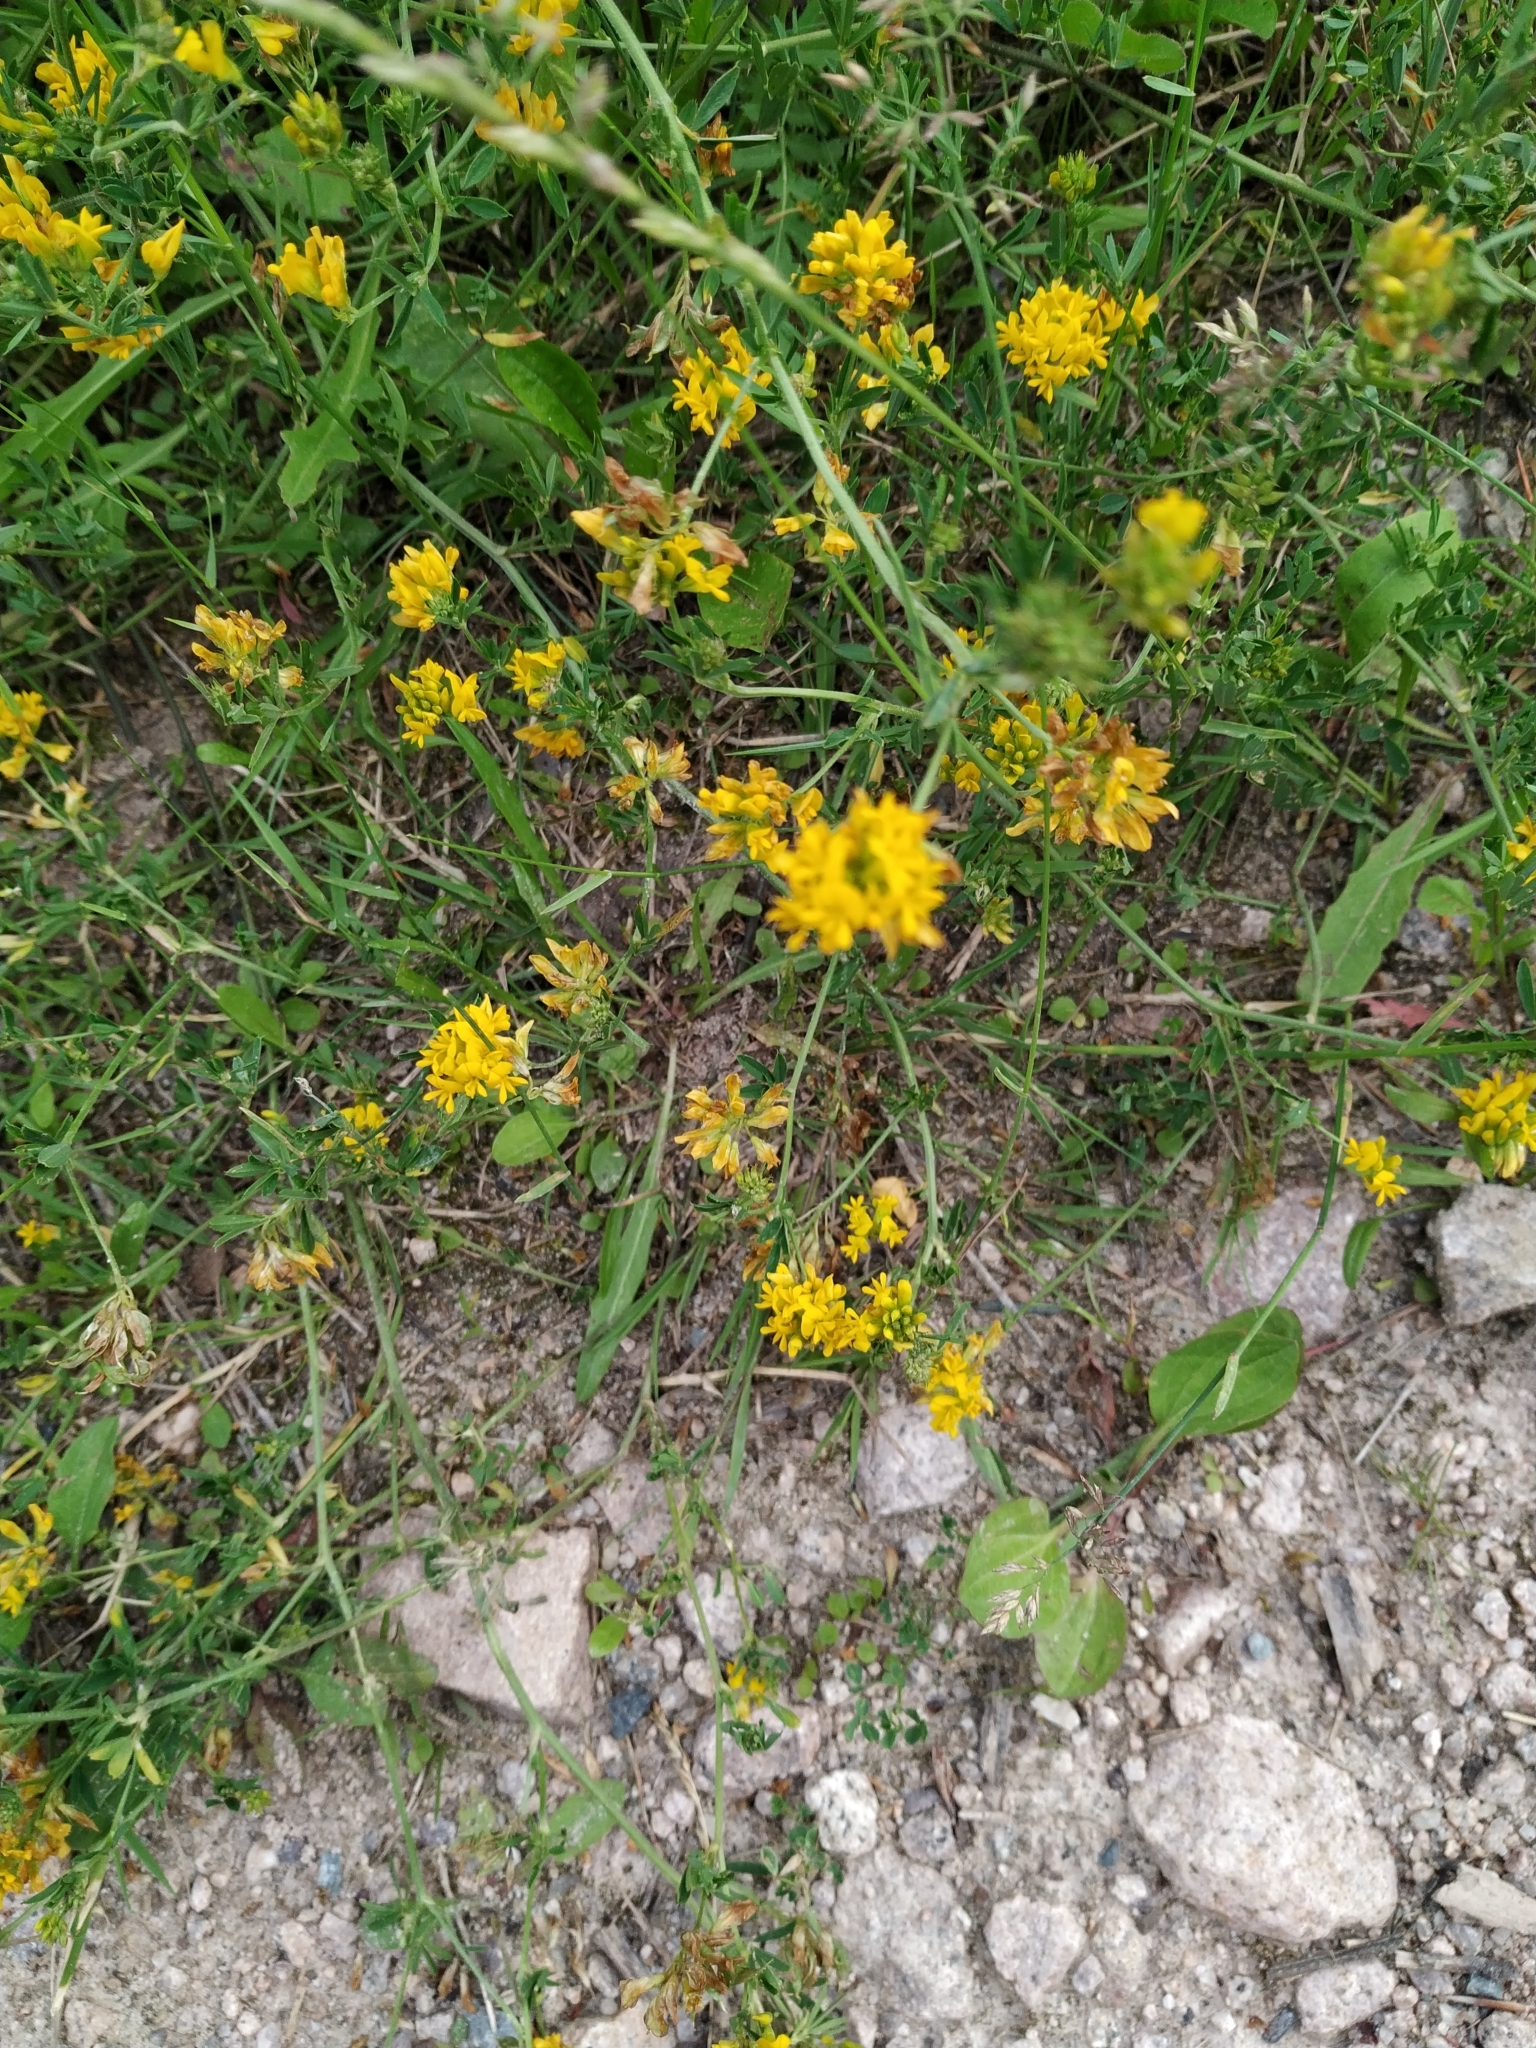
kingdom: Plantae
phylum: Tracheophyta
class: Magnoliopsida
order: Fabales
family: Fabaceae
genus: Medicago
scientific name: Medicago falcata
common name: Sickle medick
